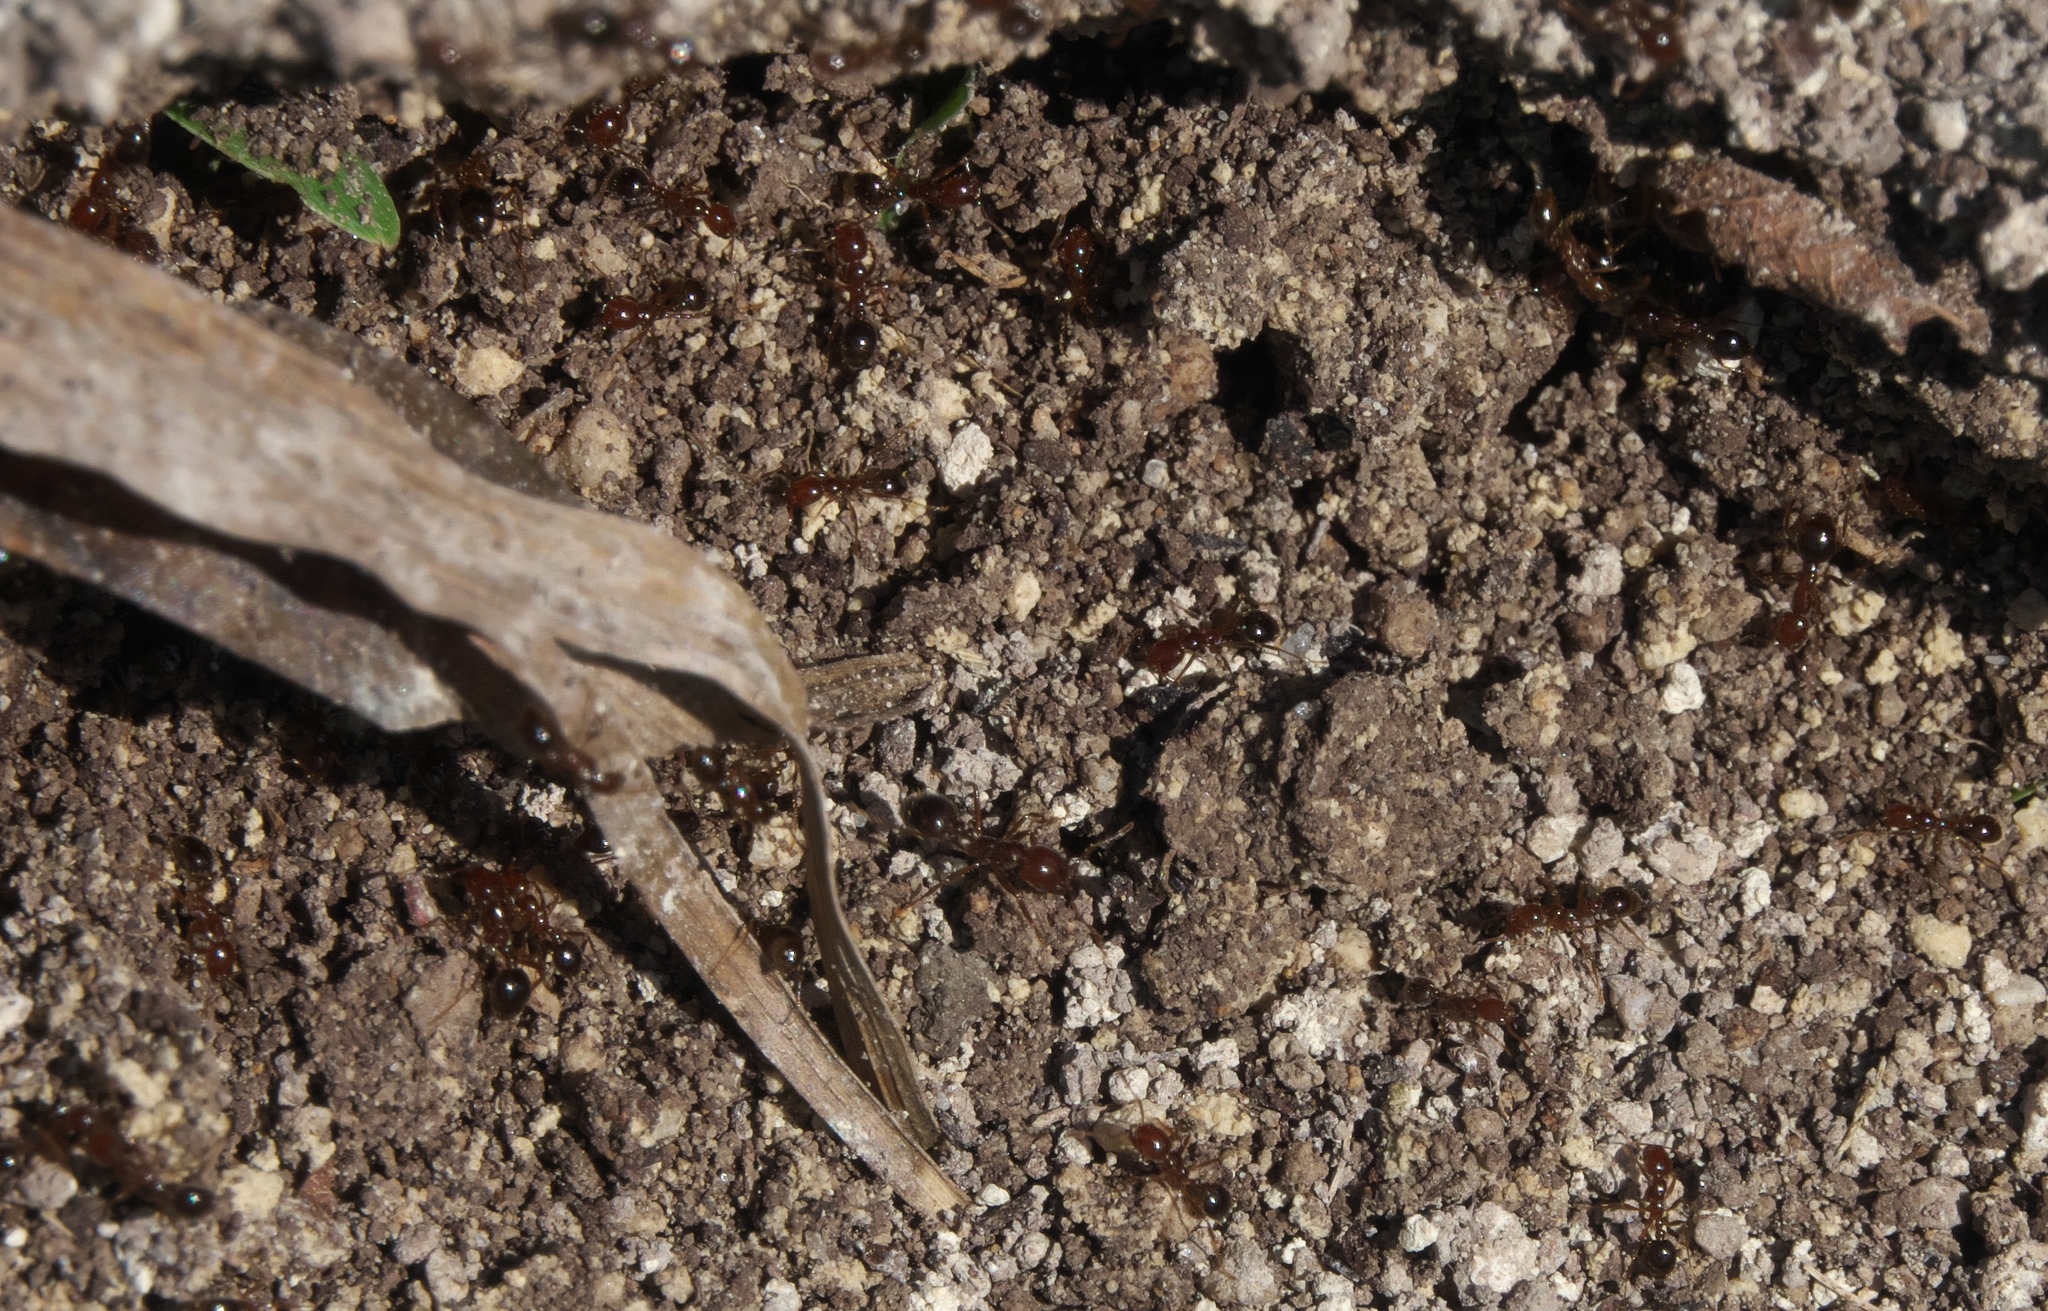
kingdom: Animalia
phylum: Arthropoda
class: Insecta
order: Hymenoptera
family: Formicidae
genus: Solenopsis
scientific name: Solenopsis invicta
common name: Red imported fire ant
